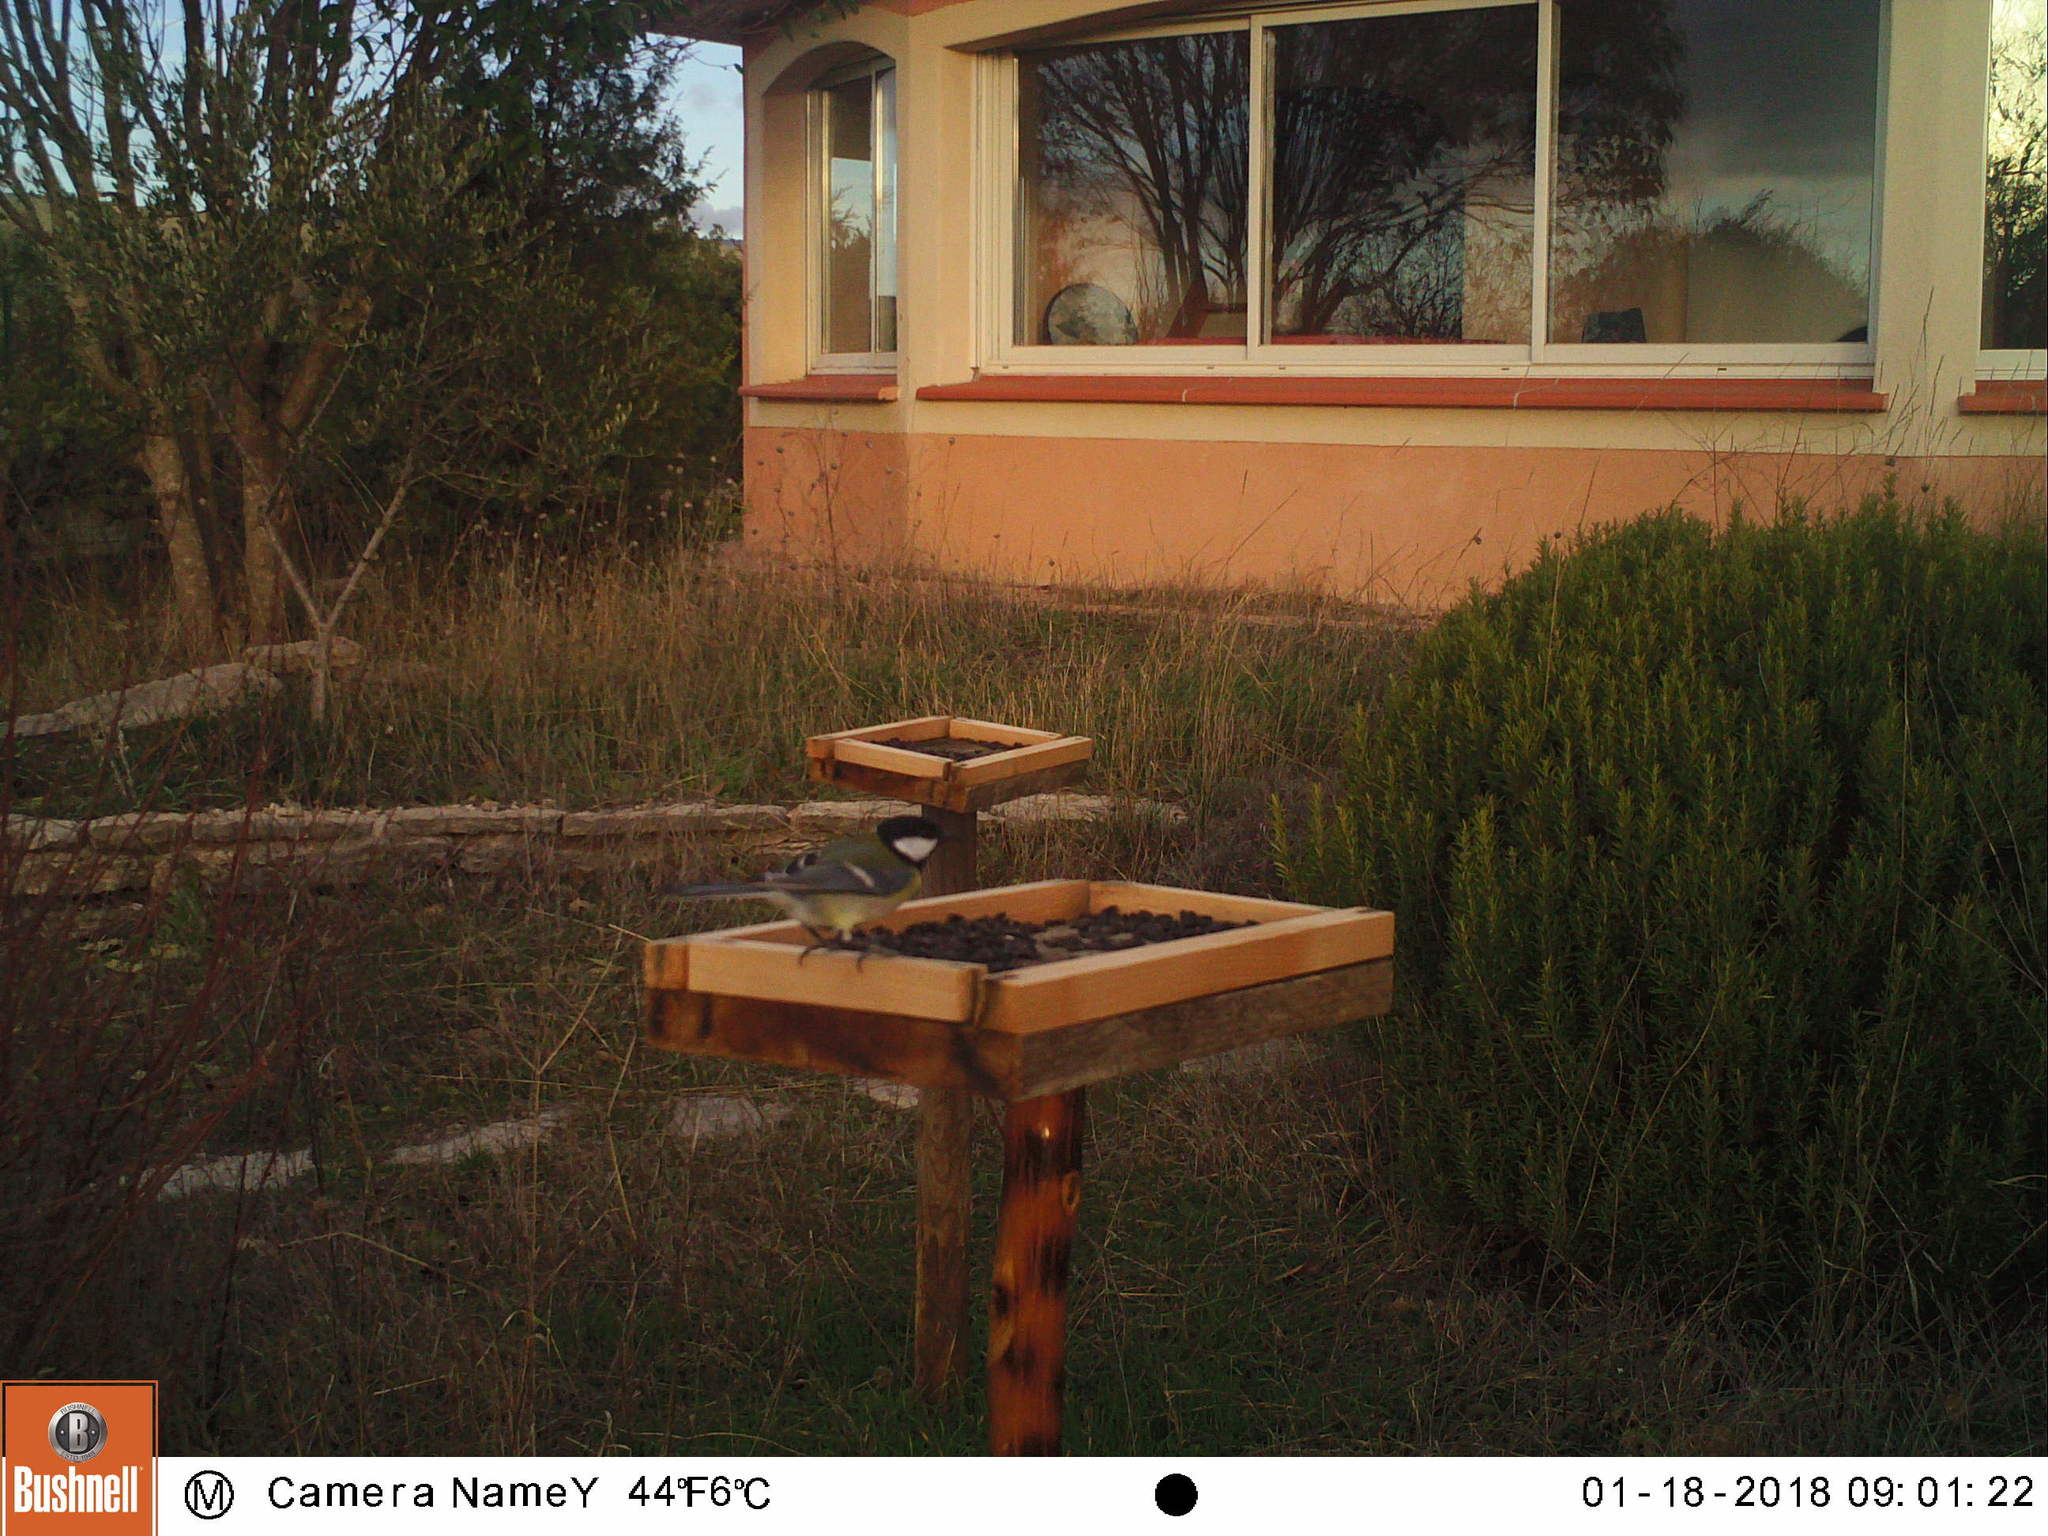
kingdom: Animalia
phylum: Chordata
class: Aves
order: Passeriformes
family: Paridae
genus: Parus
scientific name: Parus major
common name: Great tit
